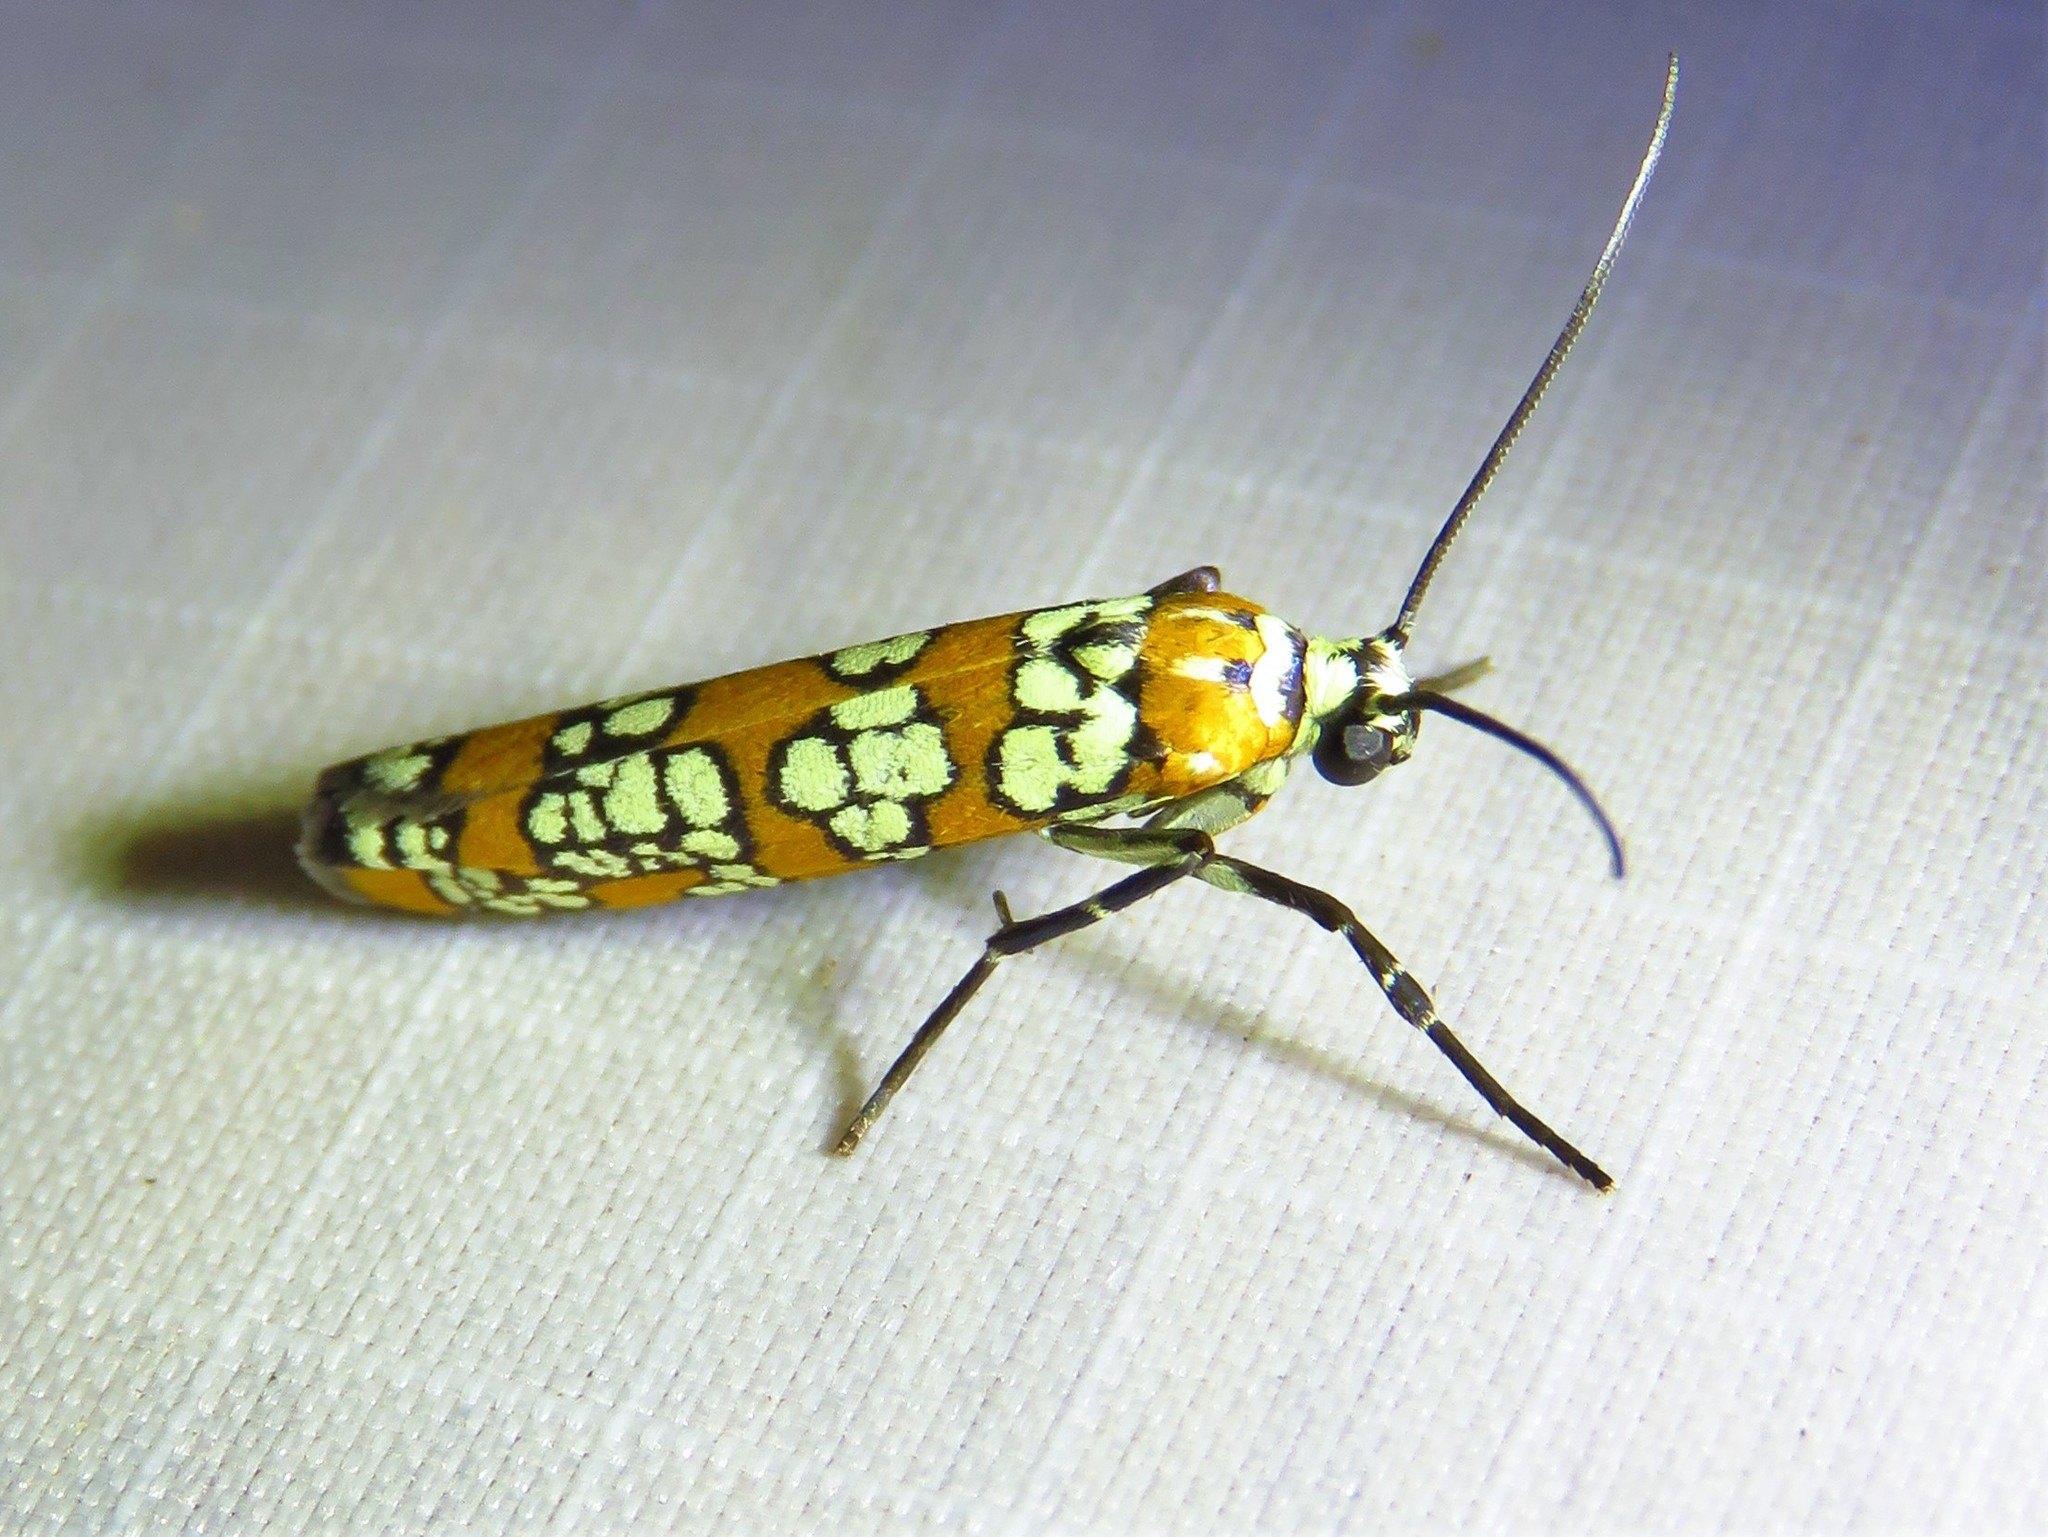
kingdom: Animalia
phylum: Arthropoda
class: Insecta
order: Lepidoptera
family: Attevidae
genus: Atteva
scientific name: Atteva punctella
